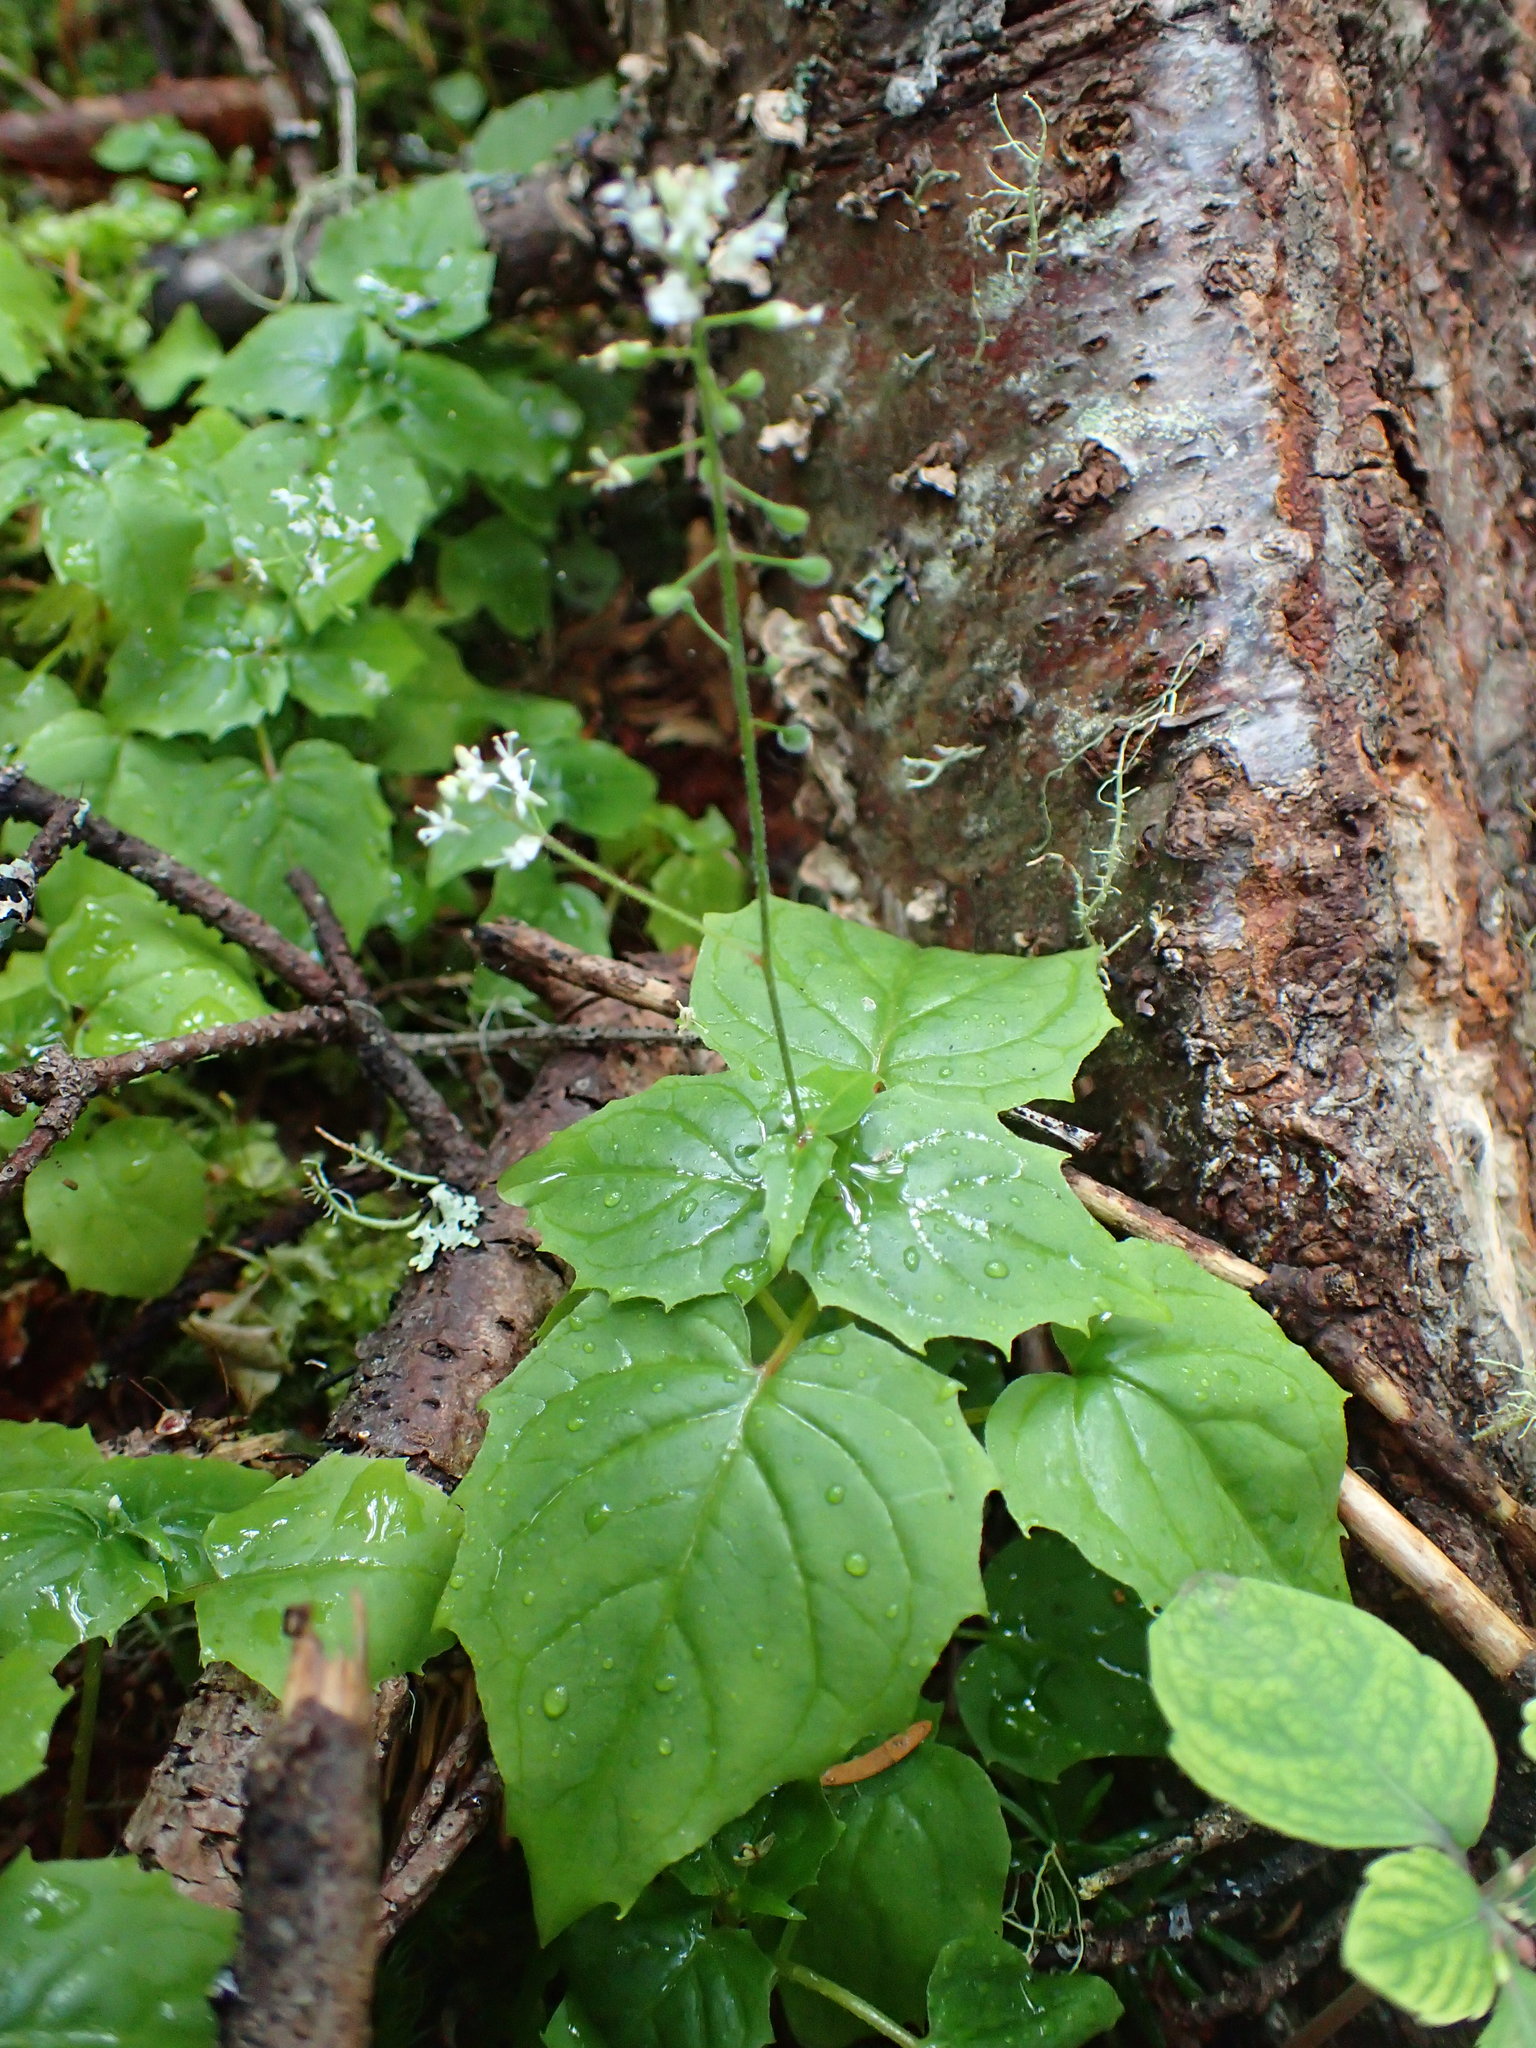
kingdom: Plantae
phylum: Tracheophyta
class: Magnoliopsida
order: Myrtales
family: Onagraceae
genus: Circaea
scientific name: Circaea alpina
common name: Alpine enchanter's-nightshade
